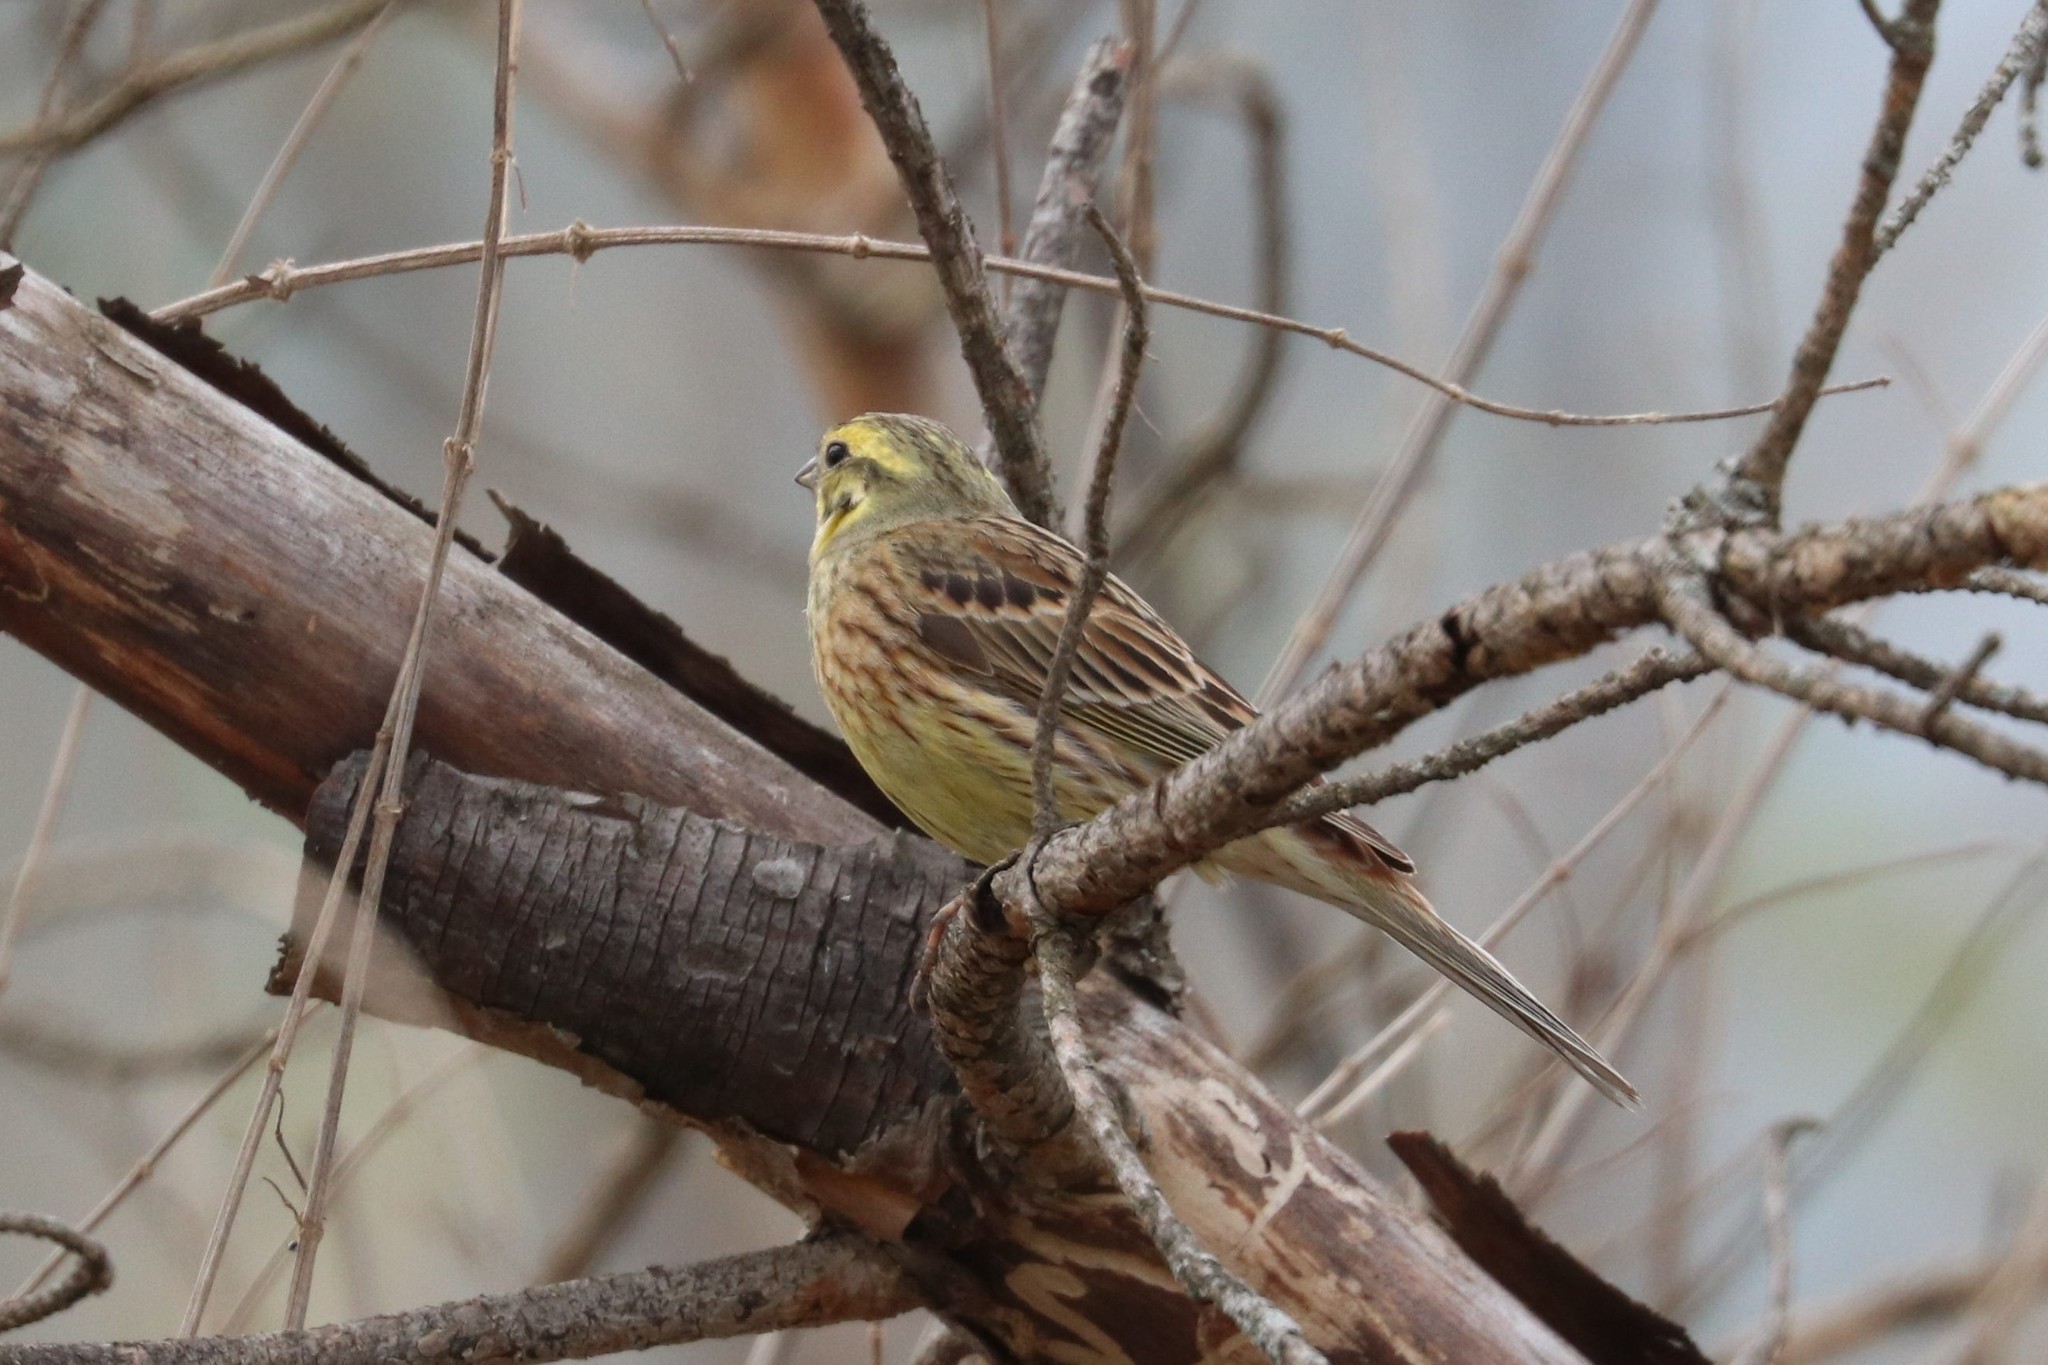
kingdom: Animalia
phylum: Chordata
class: Aves
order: Passeriformes
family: Emberizidae
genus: Emberiza
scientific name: Emberiza citrinella
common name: Yellowhammer
